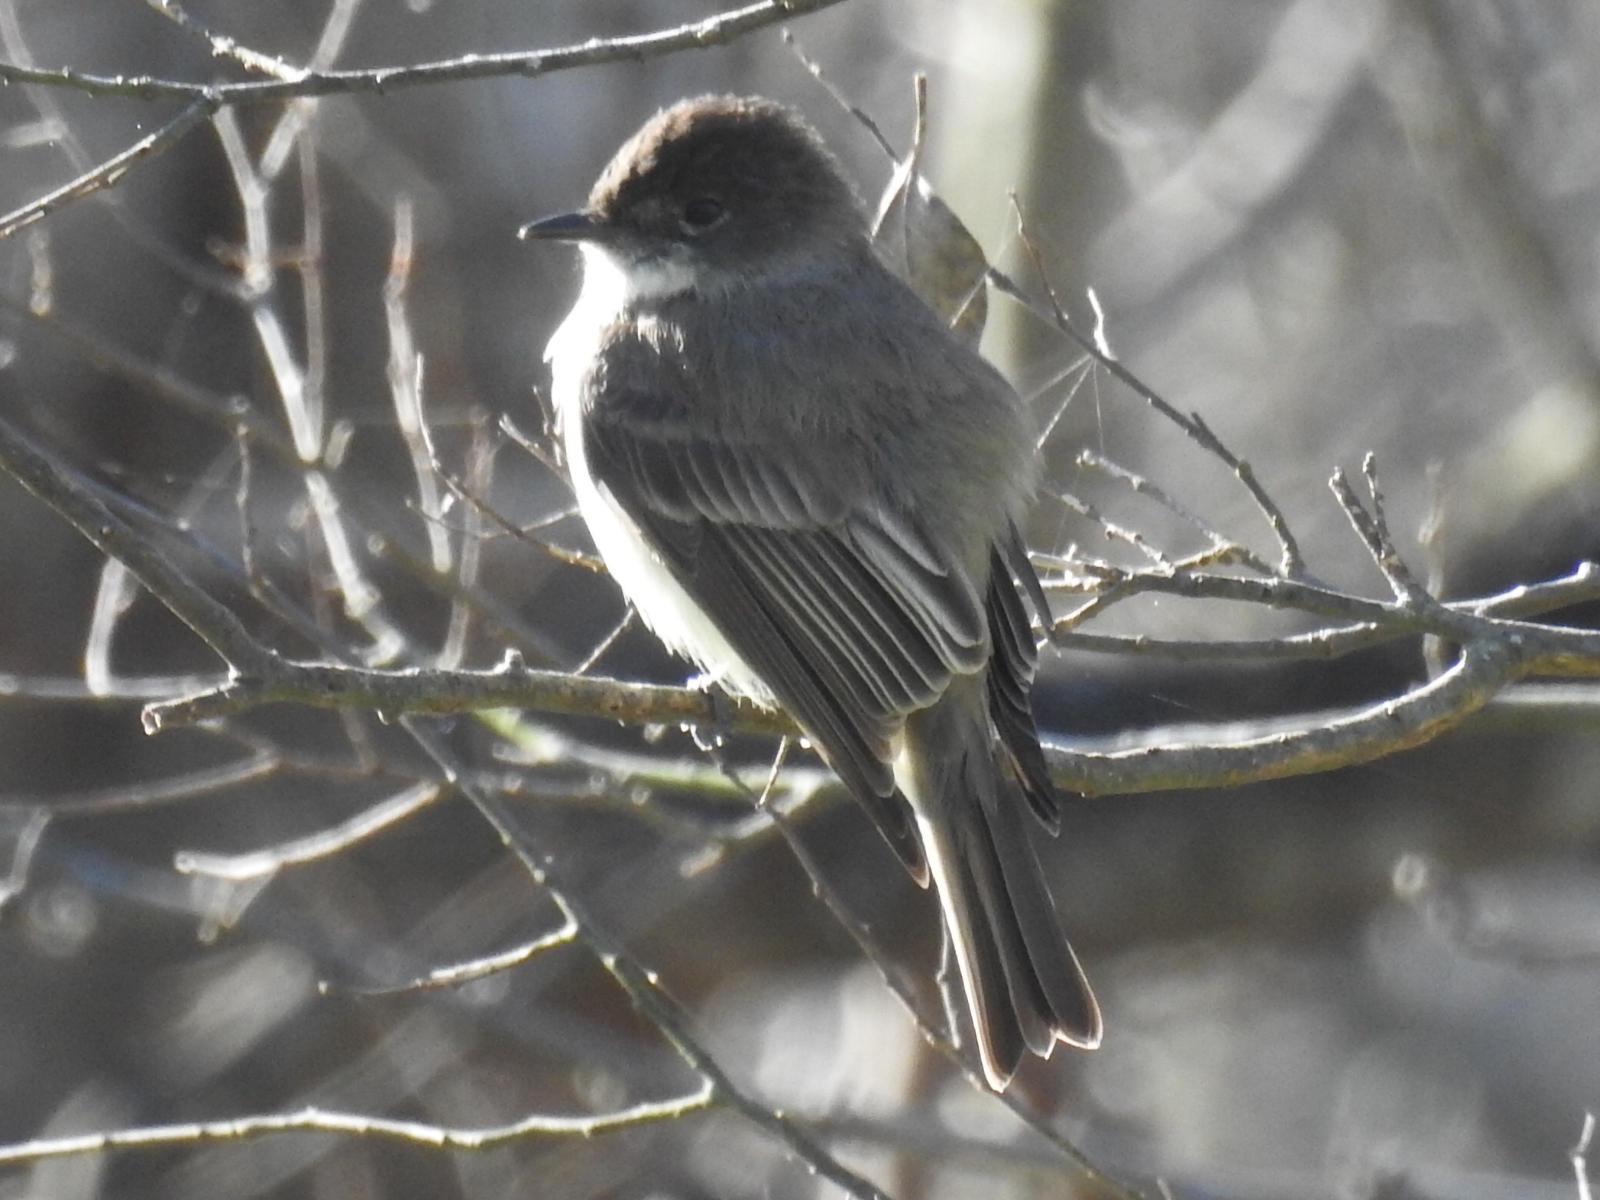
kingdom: Animalia
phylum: Chordata
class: Aves
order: Passeriformes
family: Tyrannidae
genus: Sayornis
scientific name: Sayornis phoebe
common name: Eastern phoebe
